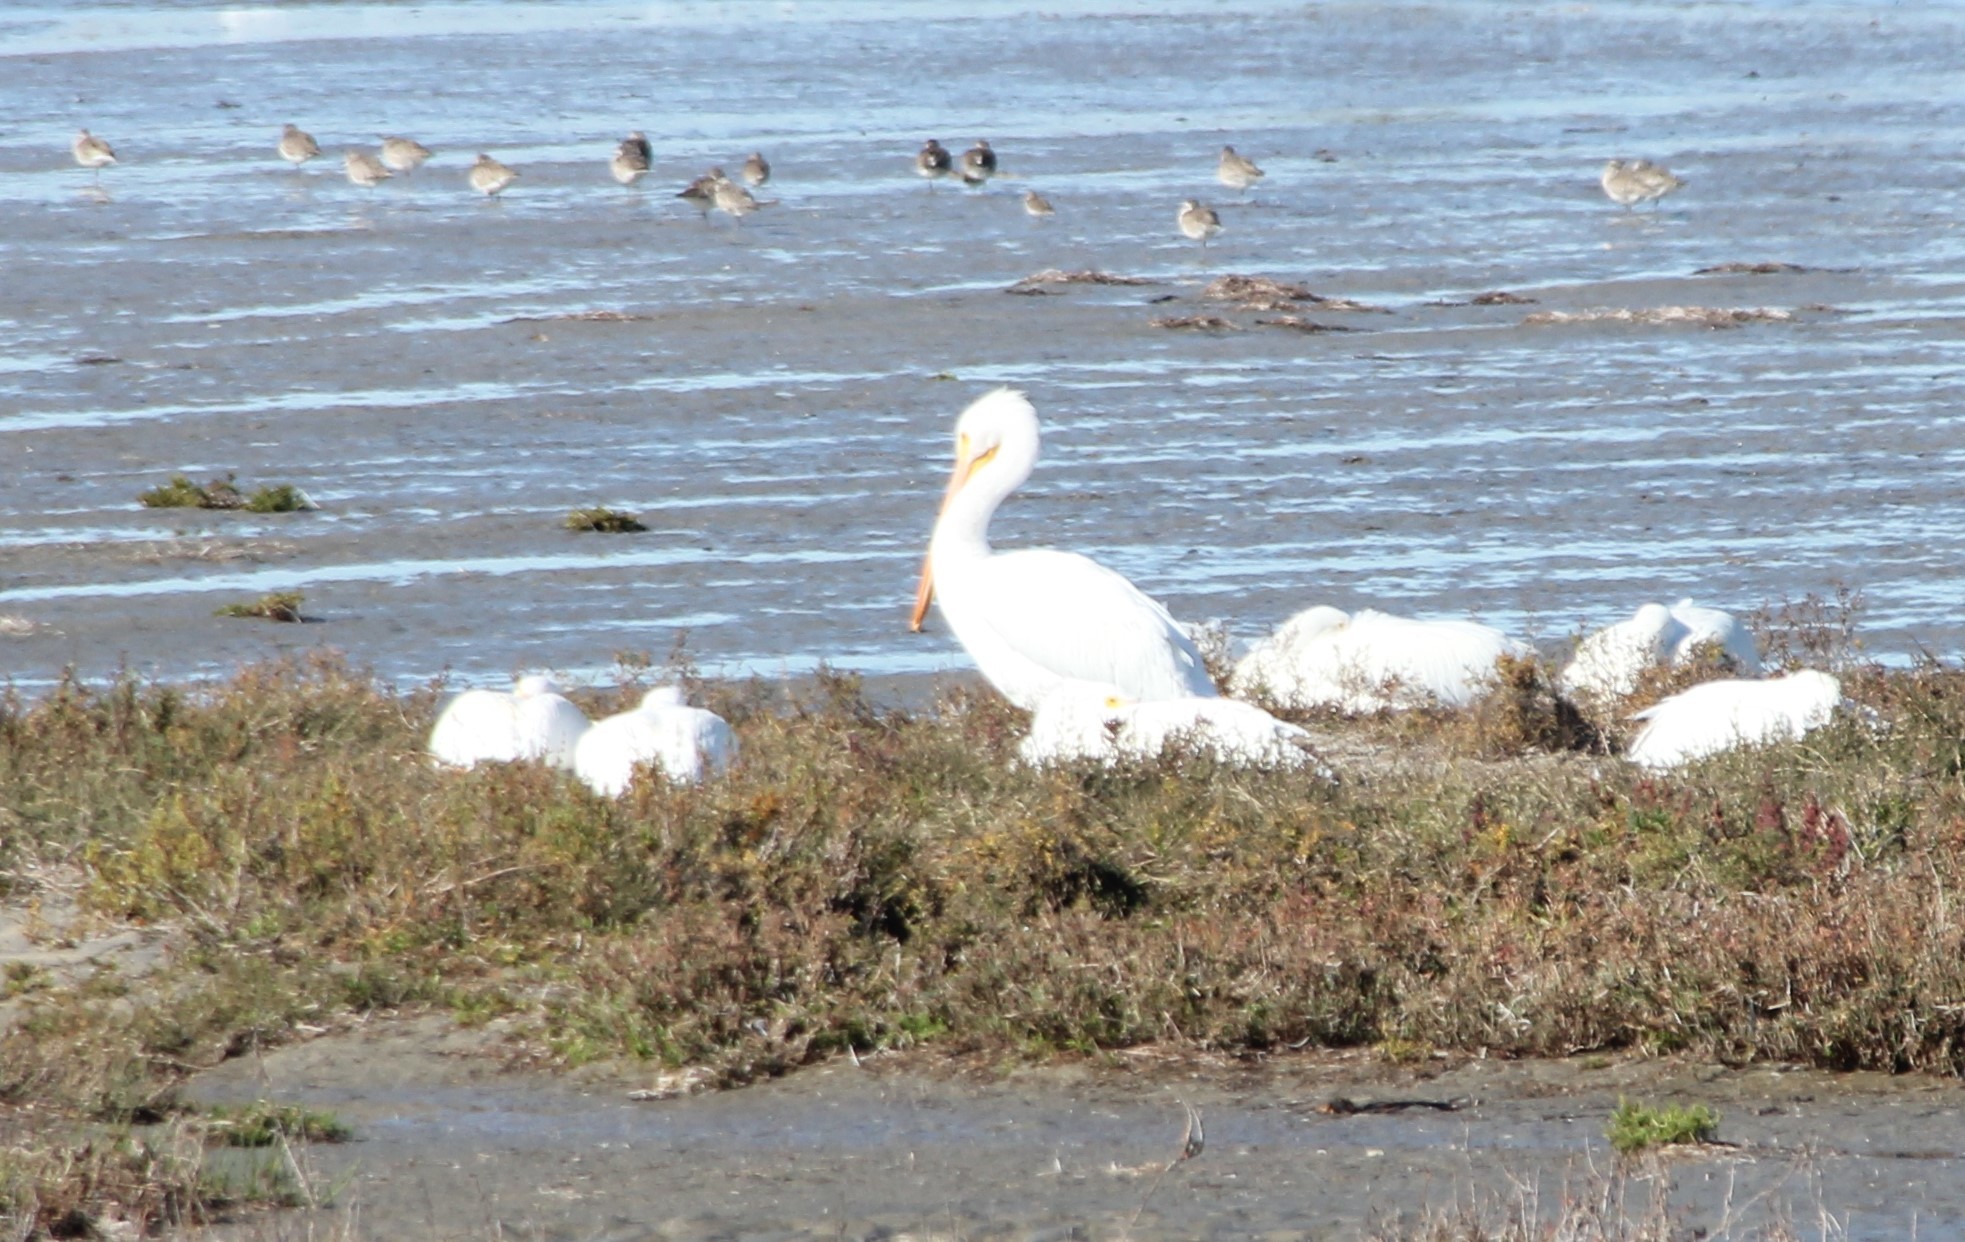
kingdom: Animalia
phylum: Chordata
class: Aves
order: Pelecaniformes
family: Pelecanidae
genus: Pelecanus
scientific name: Pelecanus erythrorhynchos
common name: American white pelican
